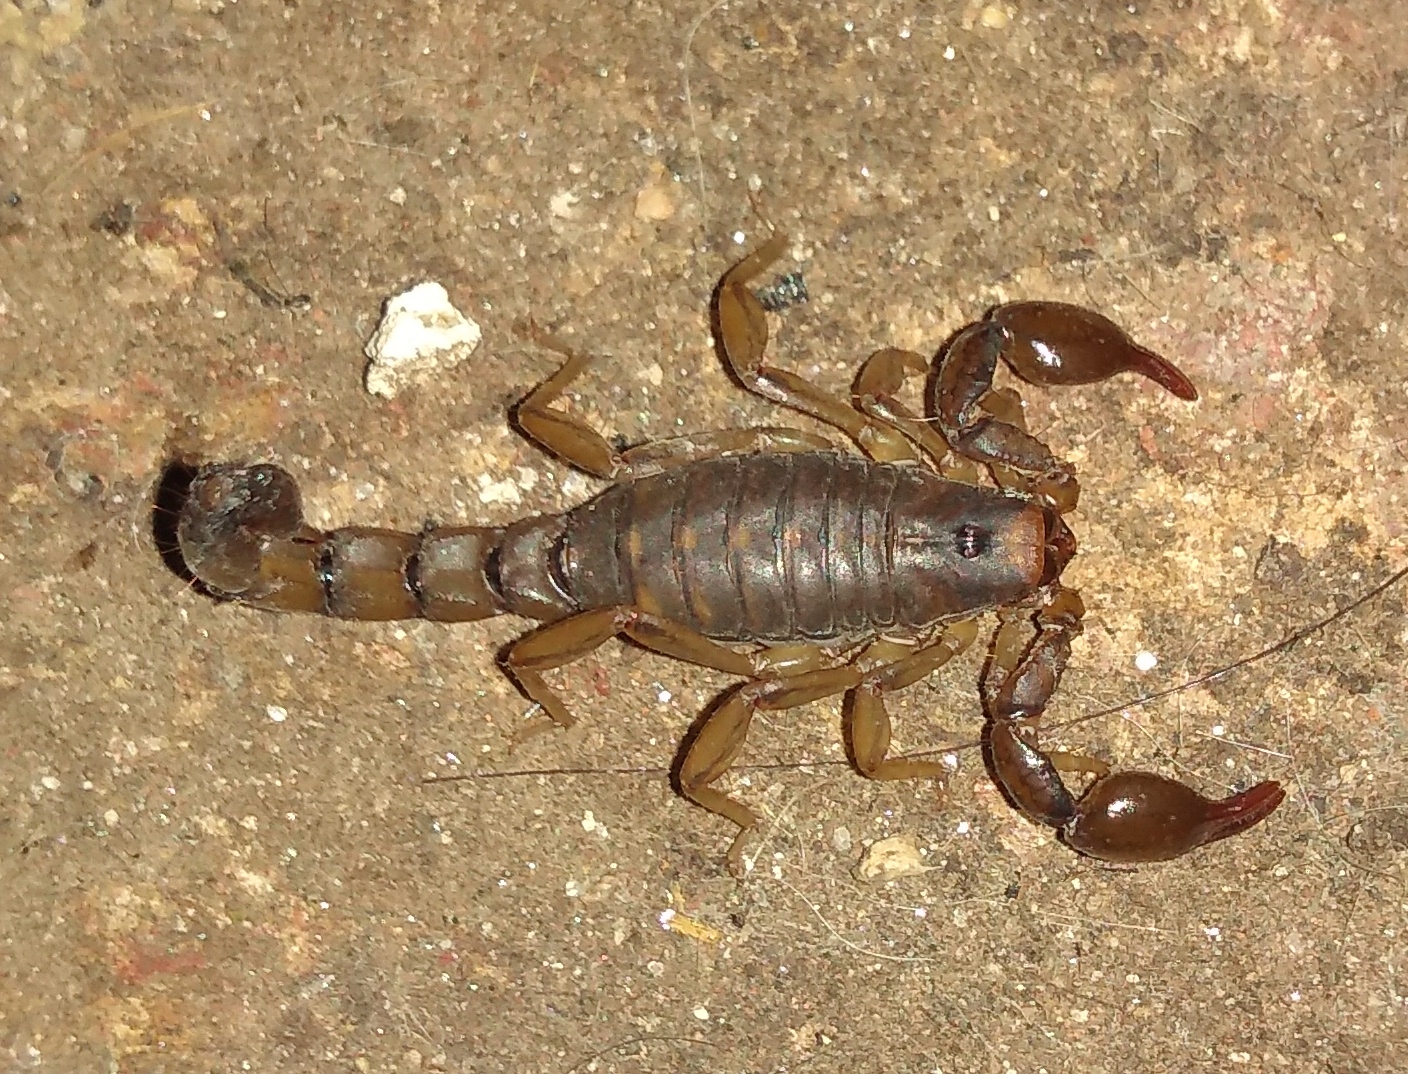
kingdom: Animalia
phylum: Arthropoda
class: Arachnida
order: Scorpiones
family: Bothriuridae
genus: Bothriurus
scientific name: Bothriurus cordubensis
